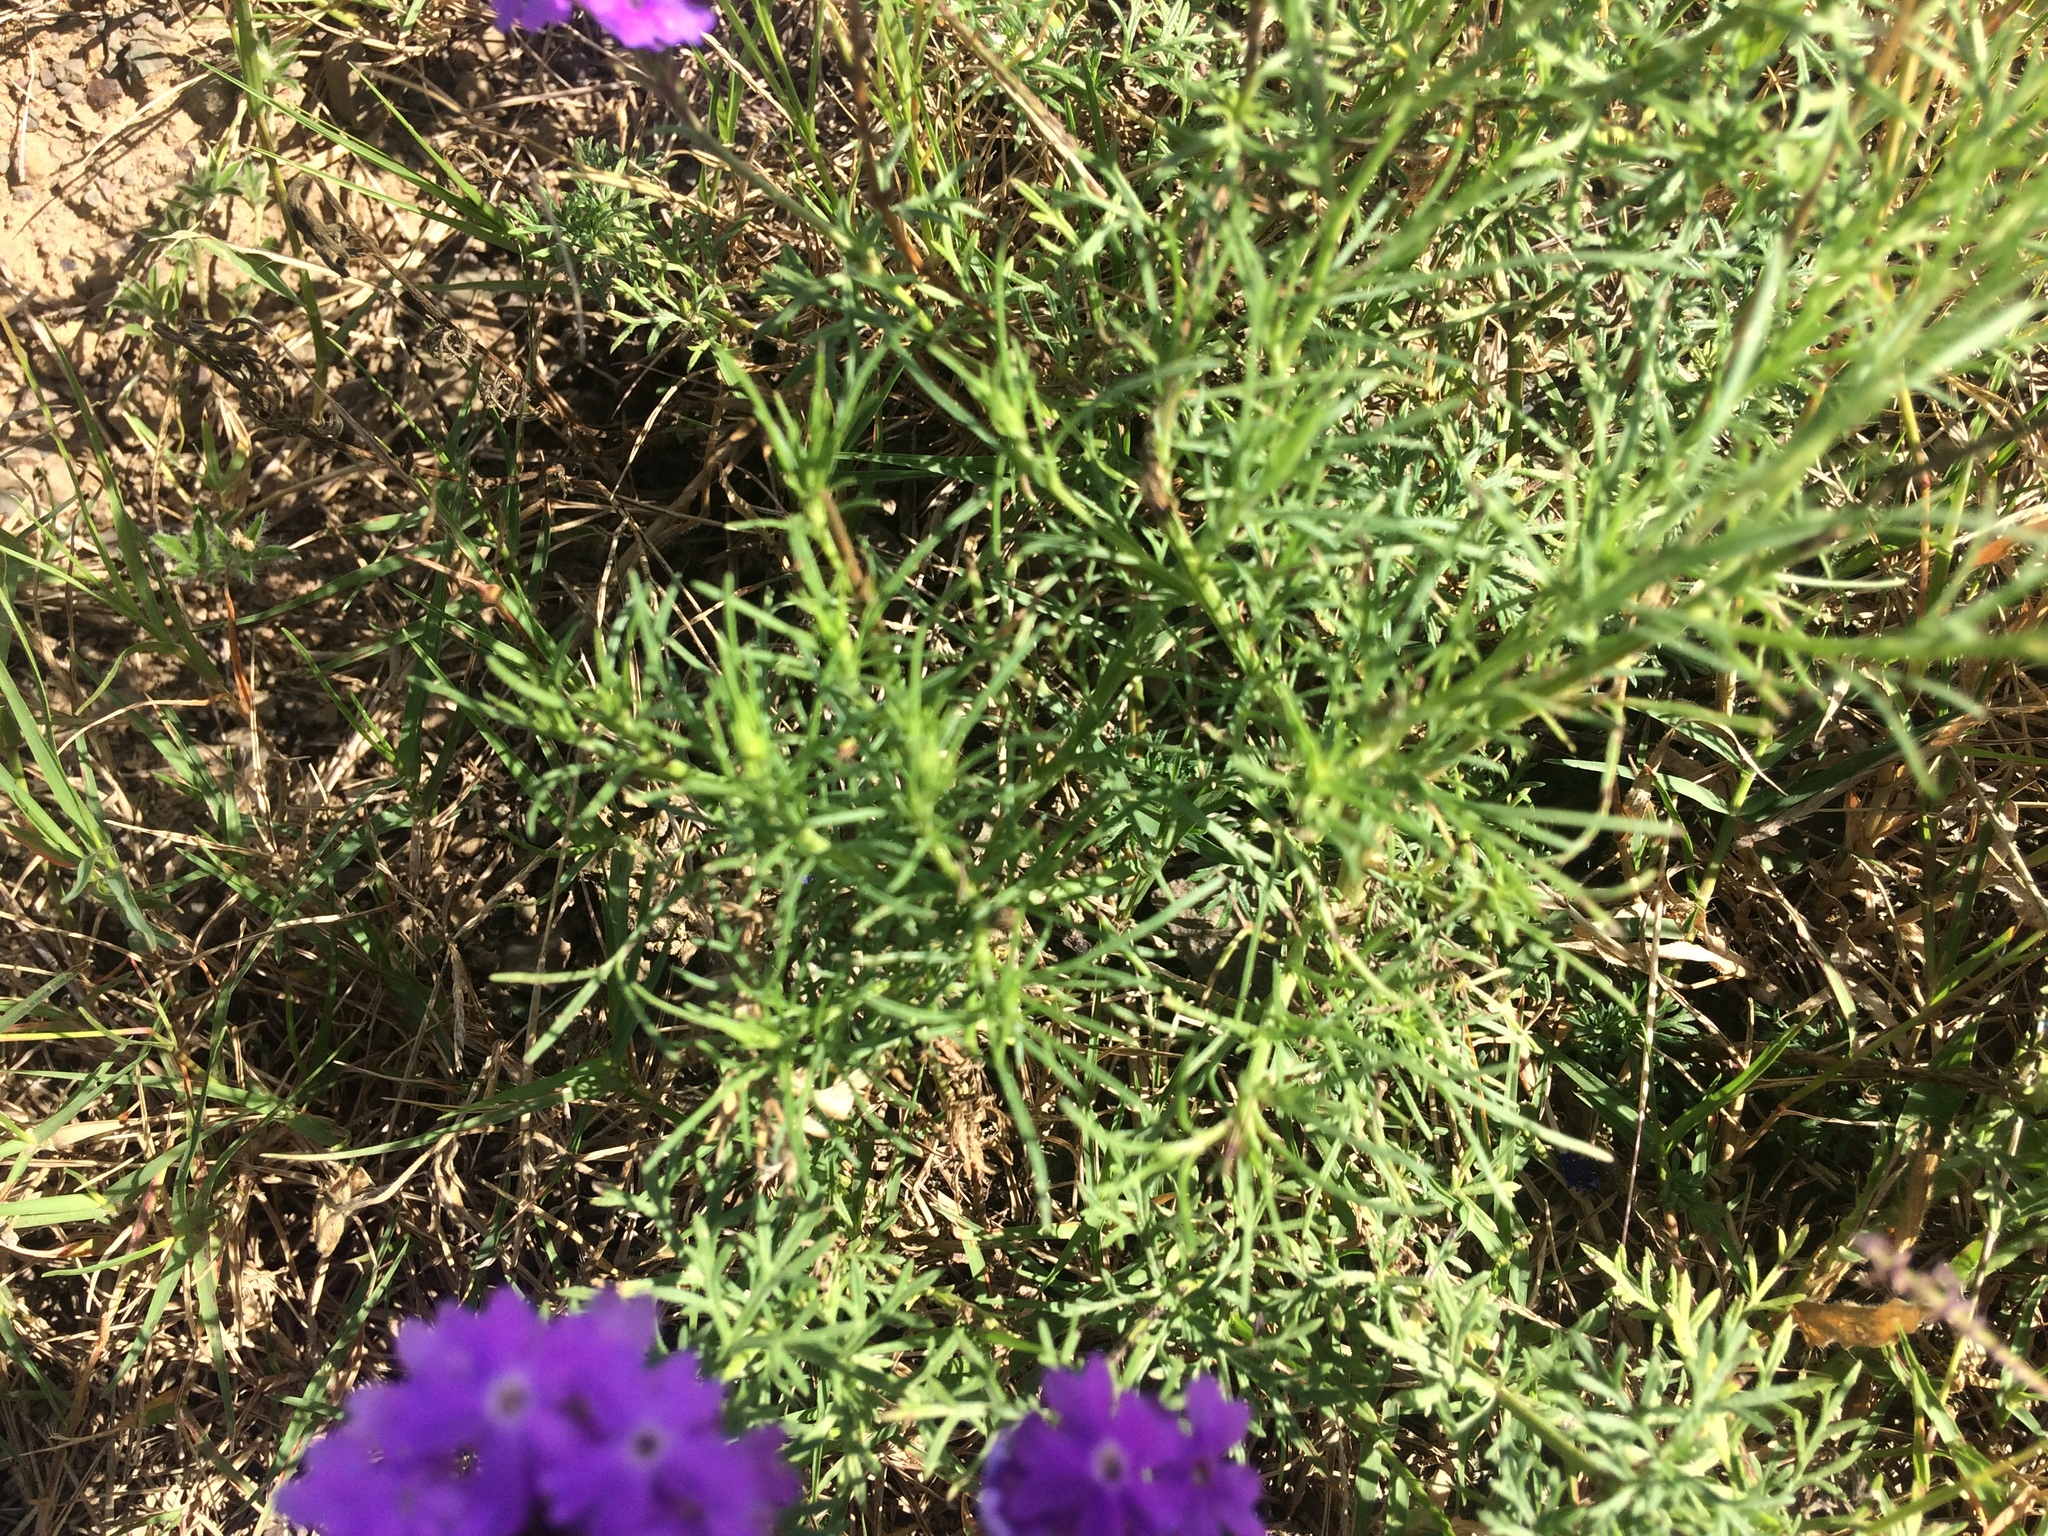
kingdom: Plantae
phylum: Tracheophyta
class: Magnoliopsida
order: Lamiales
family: Verbenaceae
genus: Verbena
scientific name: Verbena aristigera
